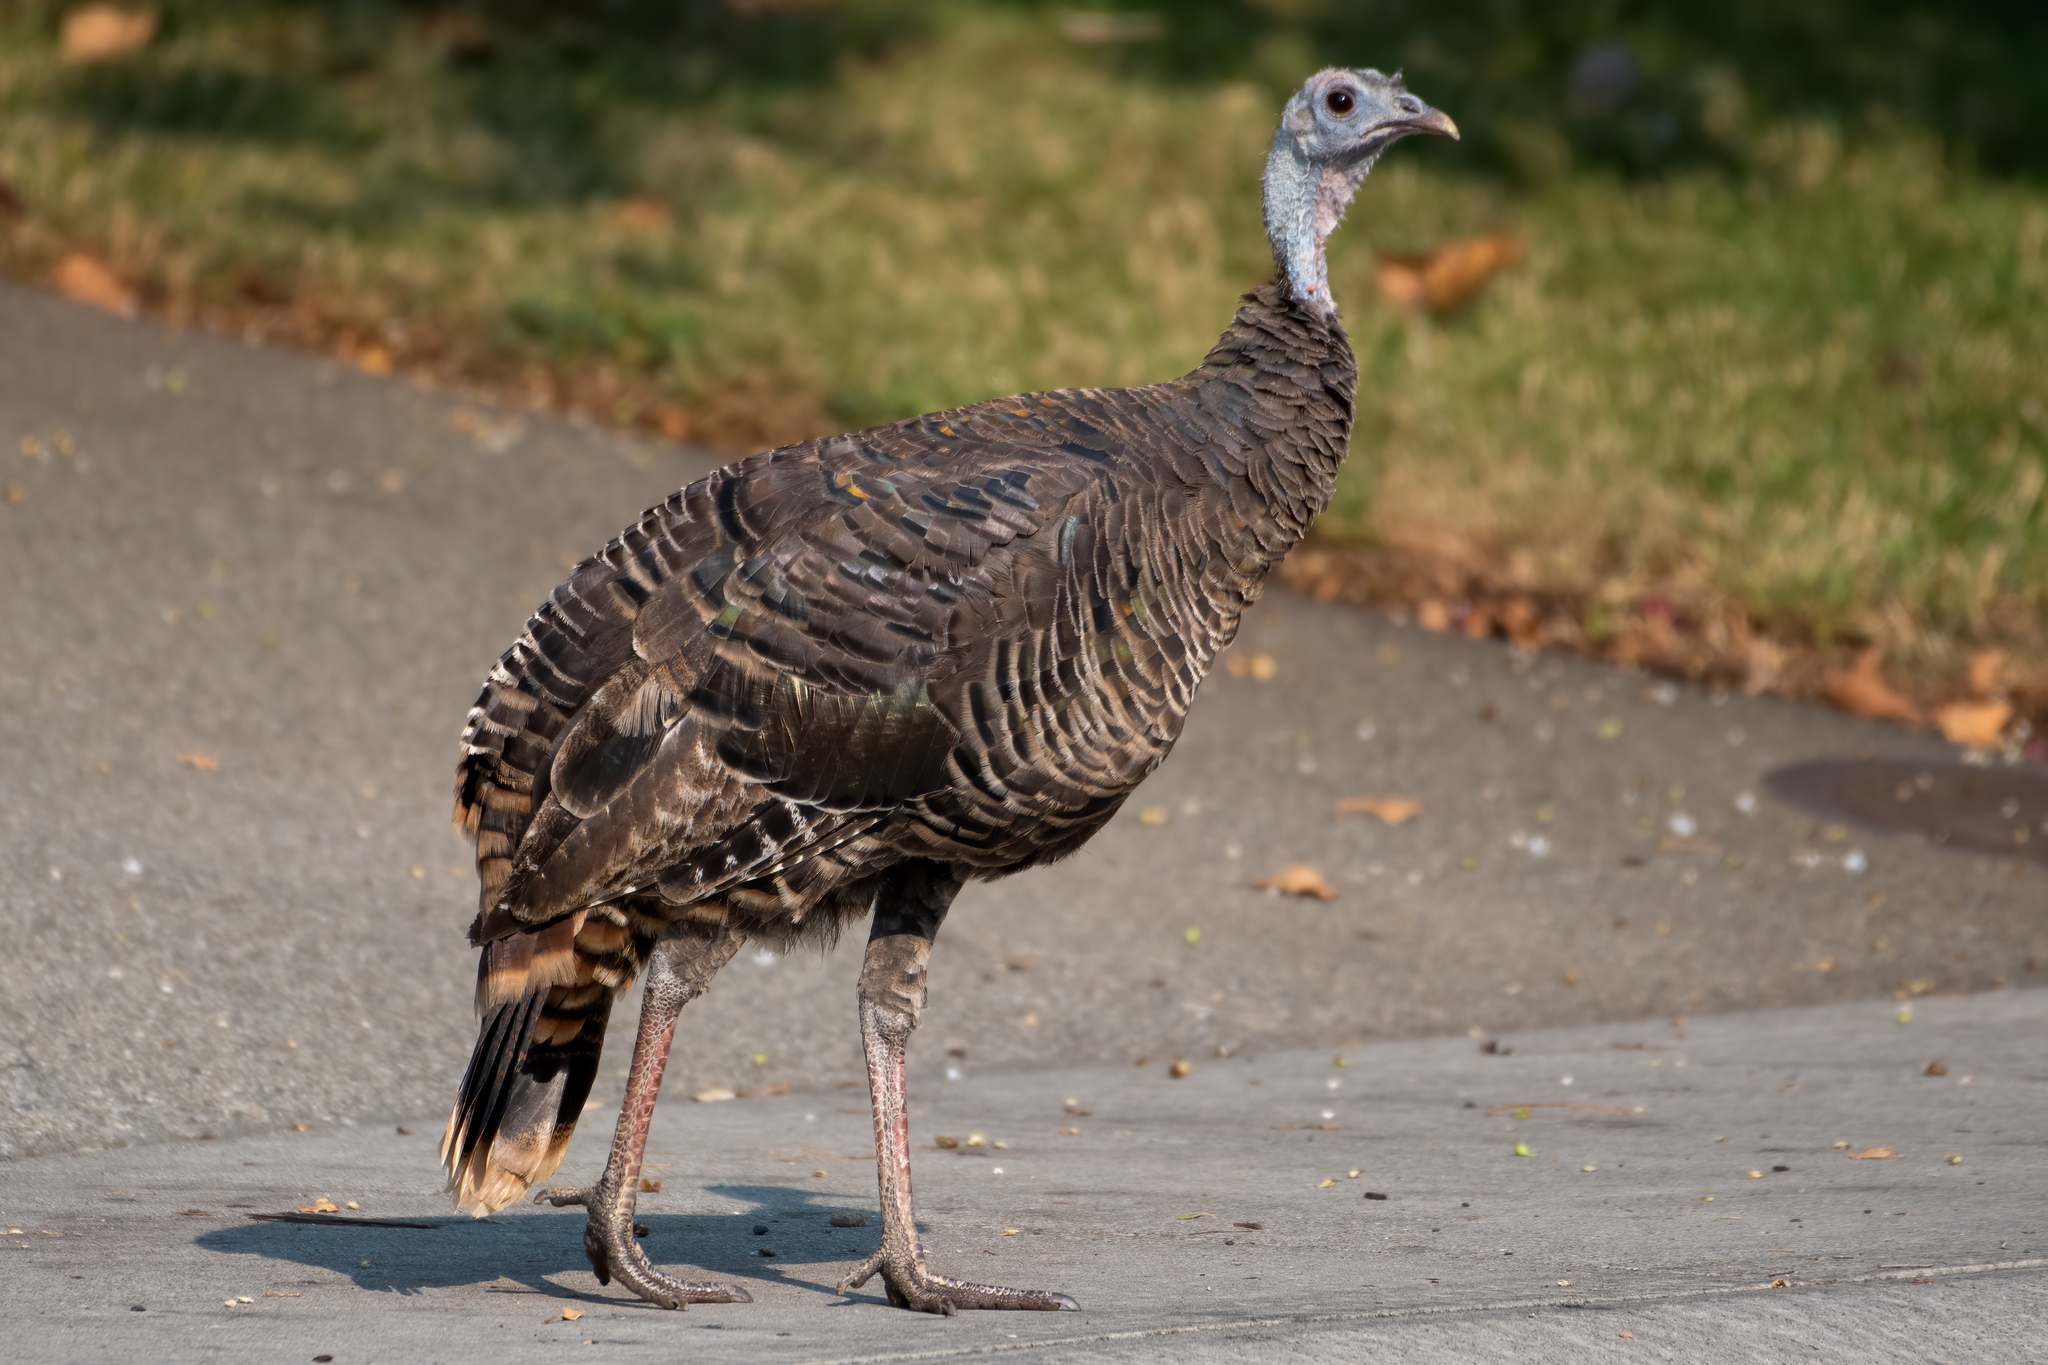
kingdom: Animalia
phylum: Chordata
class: Aves
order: Galliformes
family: Phasianidae
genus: Meleagris
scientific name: Meleagris gallopavo
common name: Wild turkey
